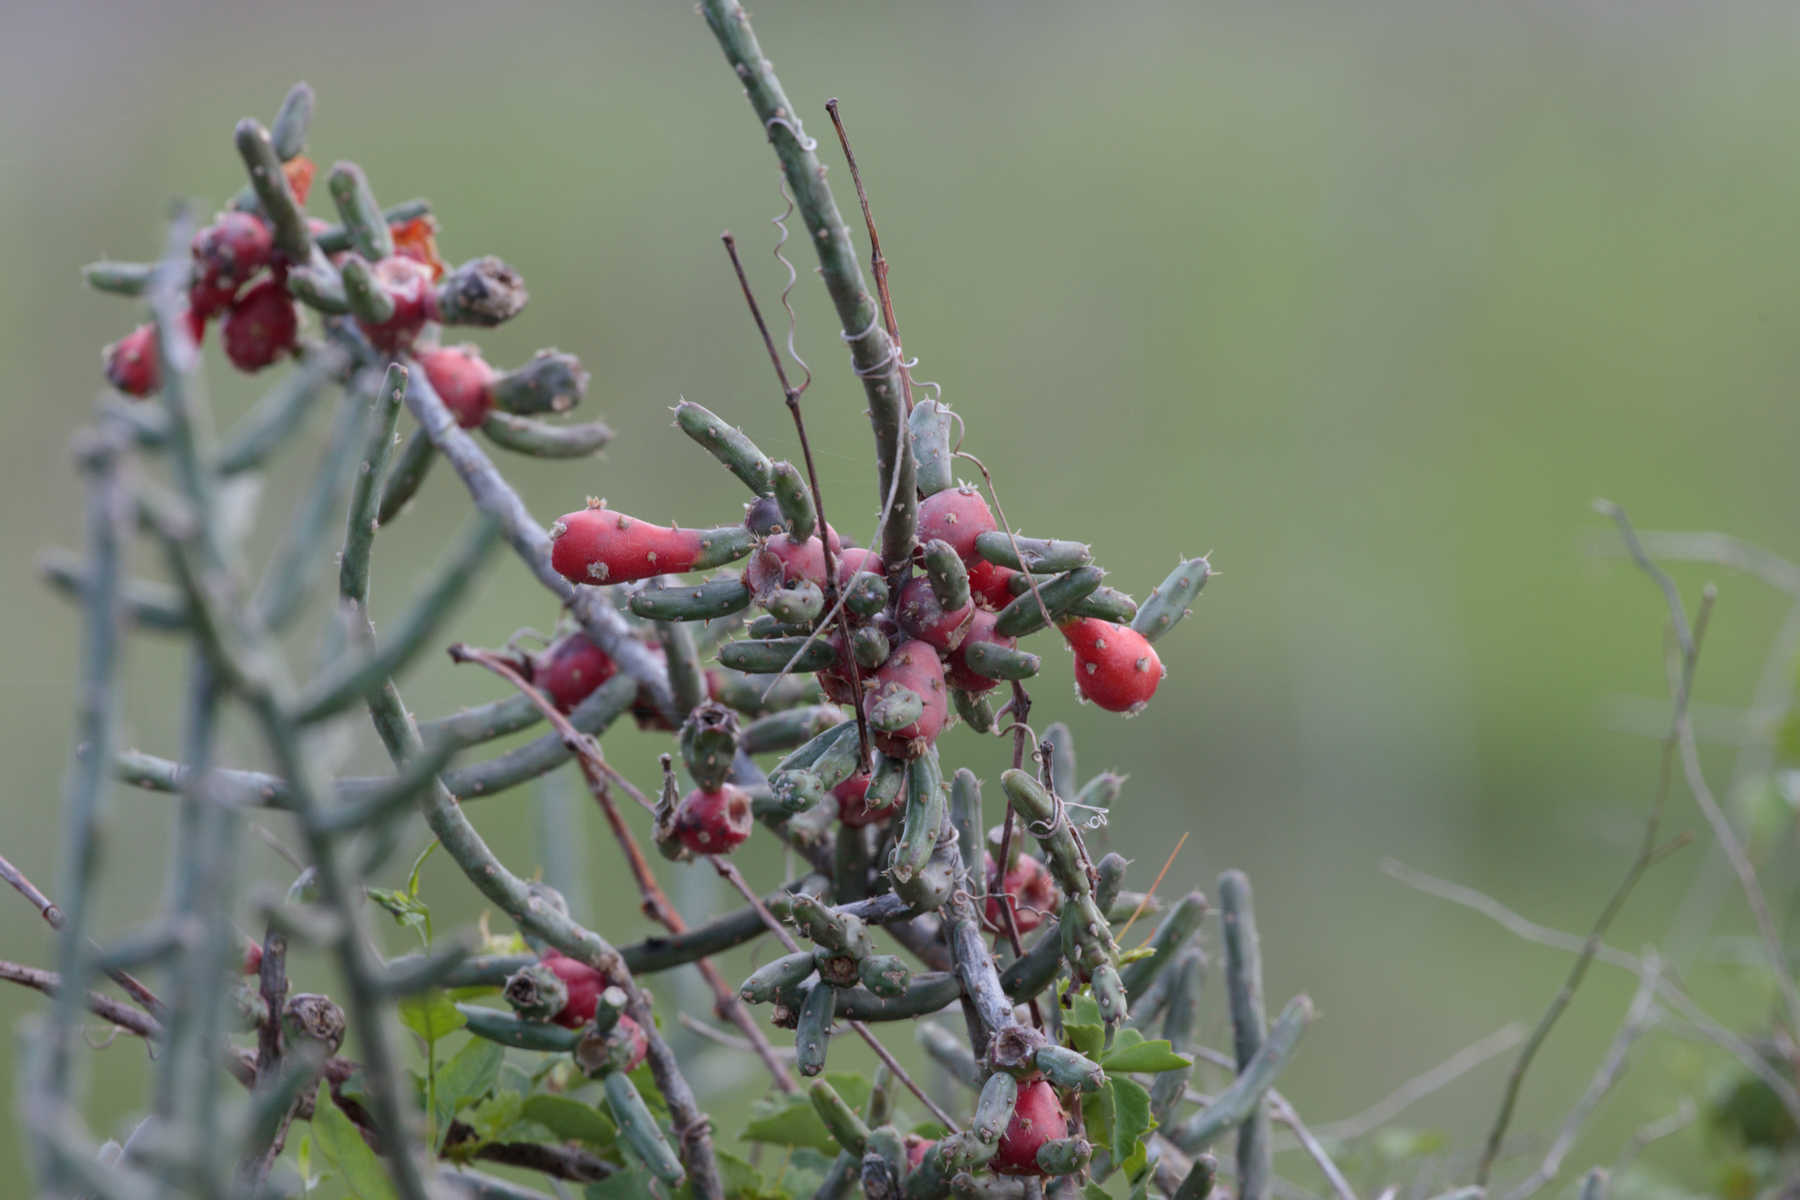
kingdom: Plantae
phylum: Tracheophyta
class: Magnoliopsida
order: Caryophyllales
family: Cactaceae
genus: Cylindropuntia
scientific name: Cylindropuntia leptocaulis
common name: Christmas cactus
